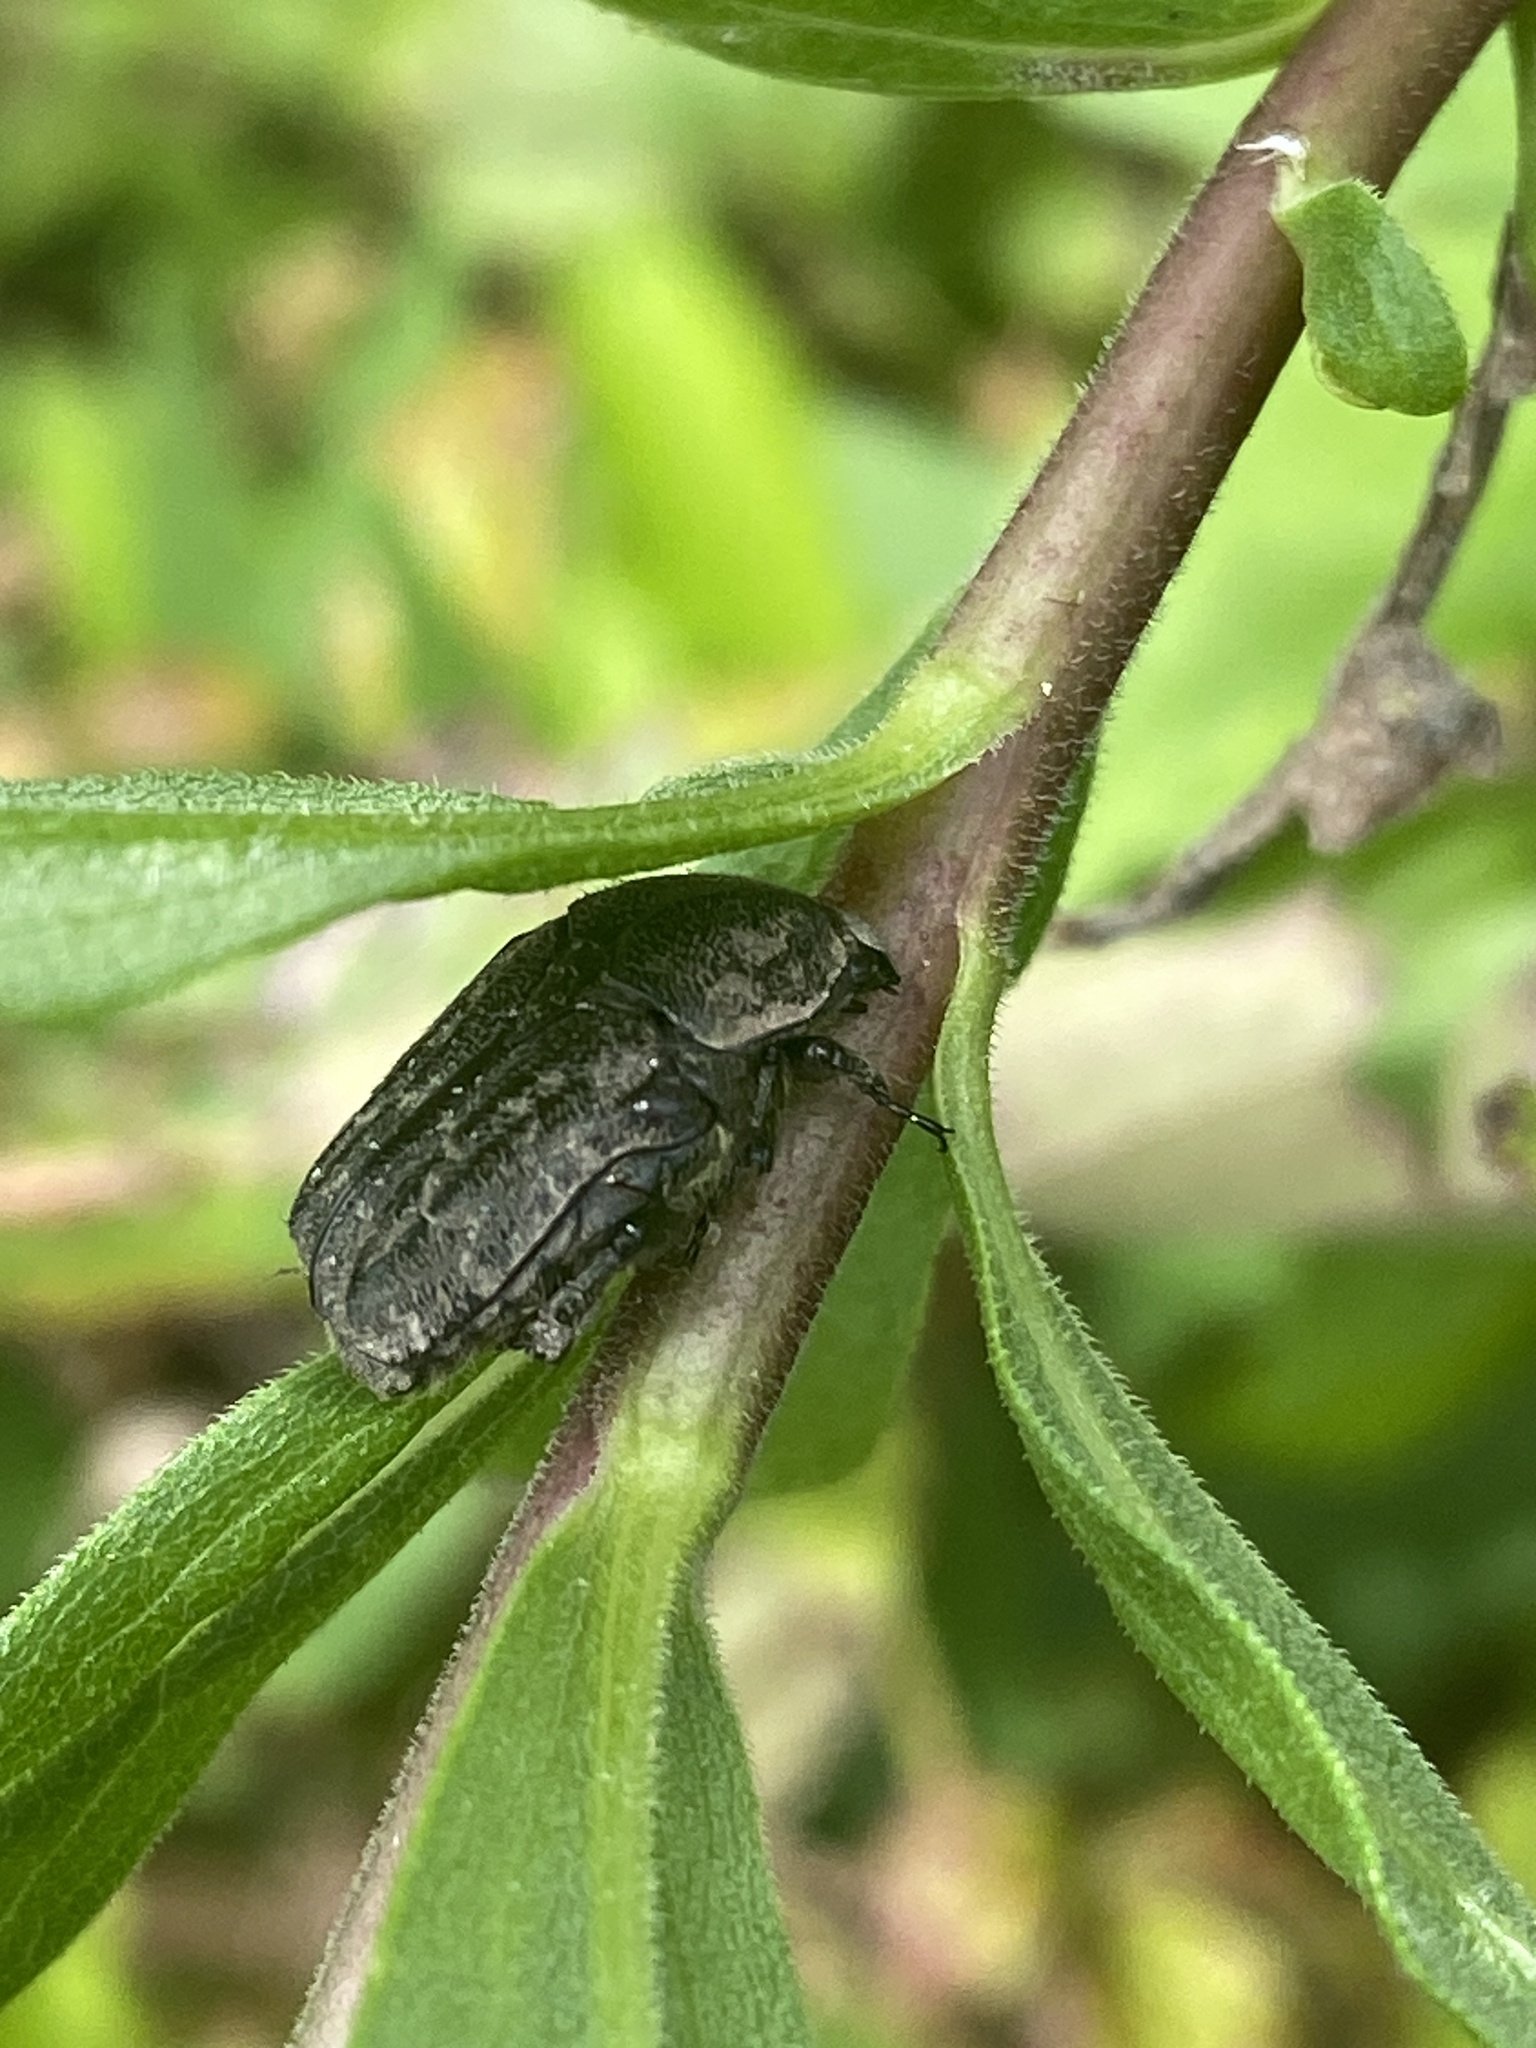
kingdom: Animalia
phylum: Arthropoda
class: Insecta
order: Coleoptera
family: Scarabaeidae
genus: Euphoria
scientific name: Euphoria sepulcralis
